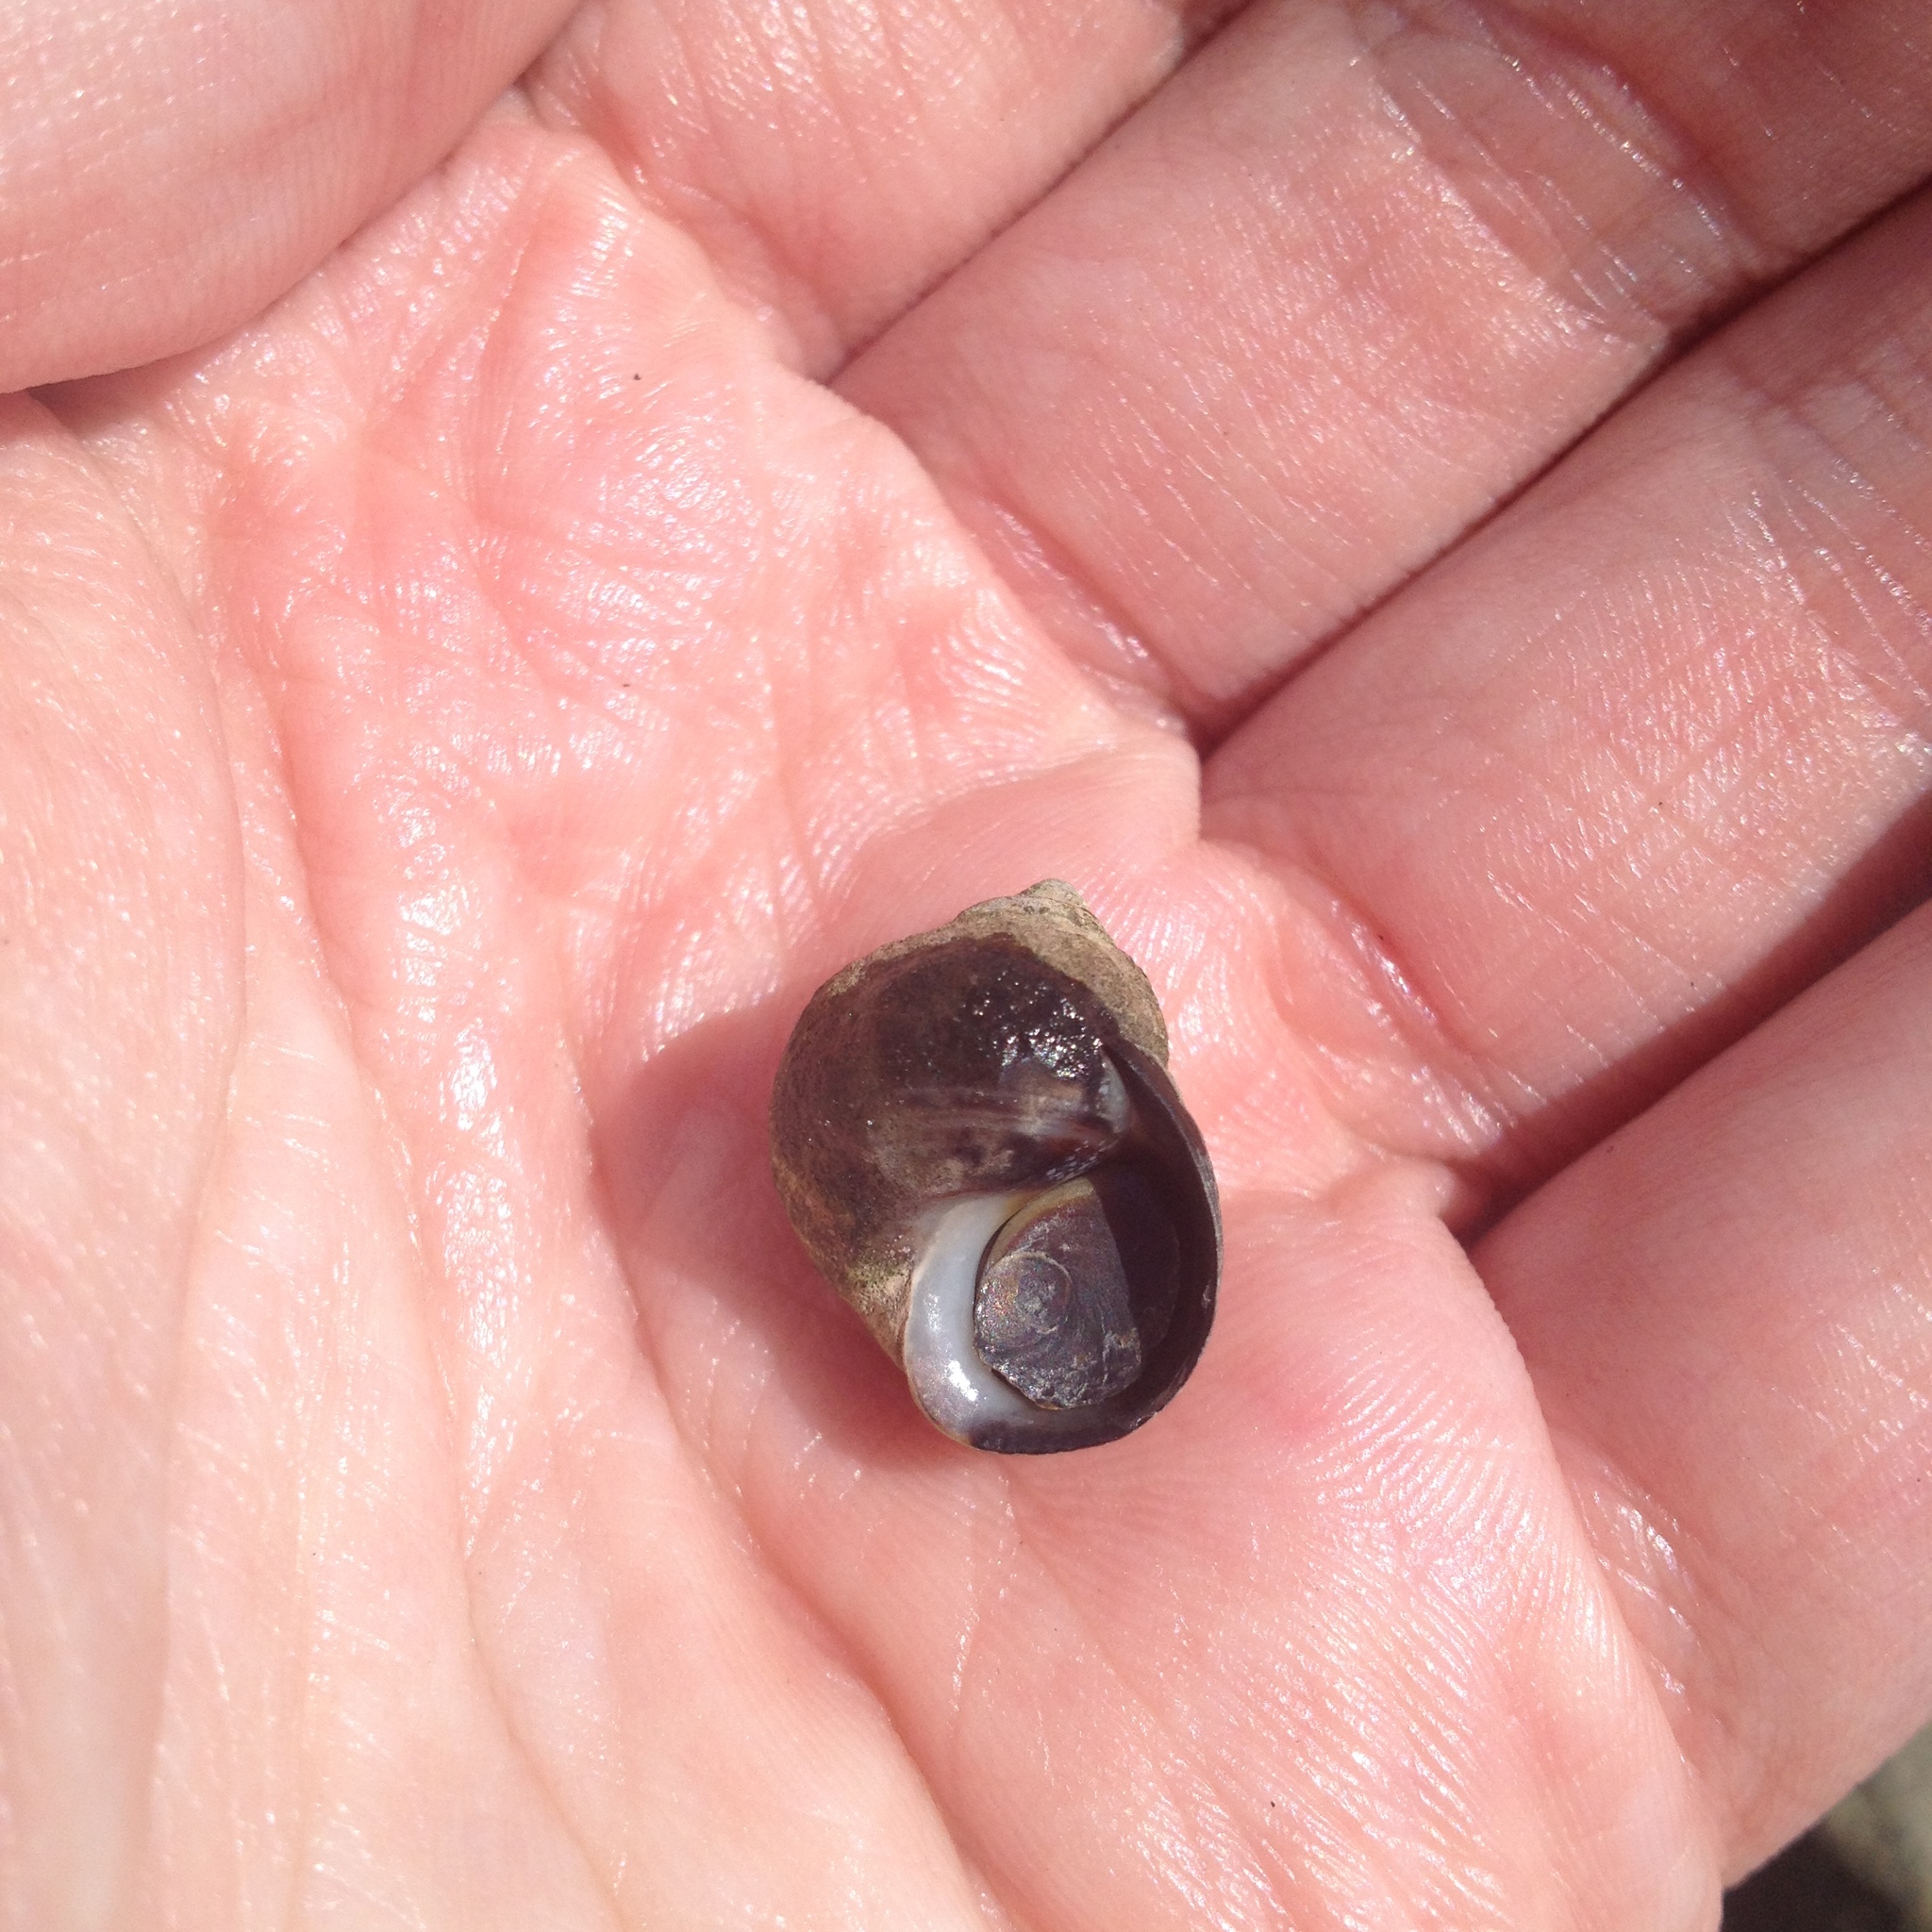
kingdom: Animalia
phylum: Mollusca
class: Gastropoda
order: Littorinimorpha
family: Littorinidae
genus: Littorina
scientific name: Littorina littorea
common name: Common periwinkle
